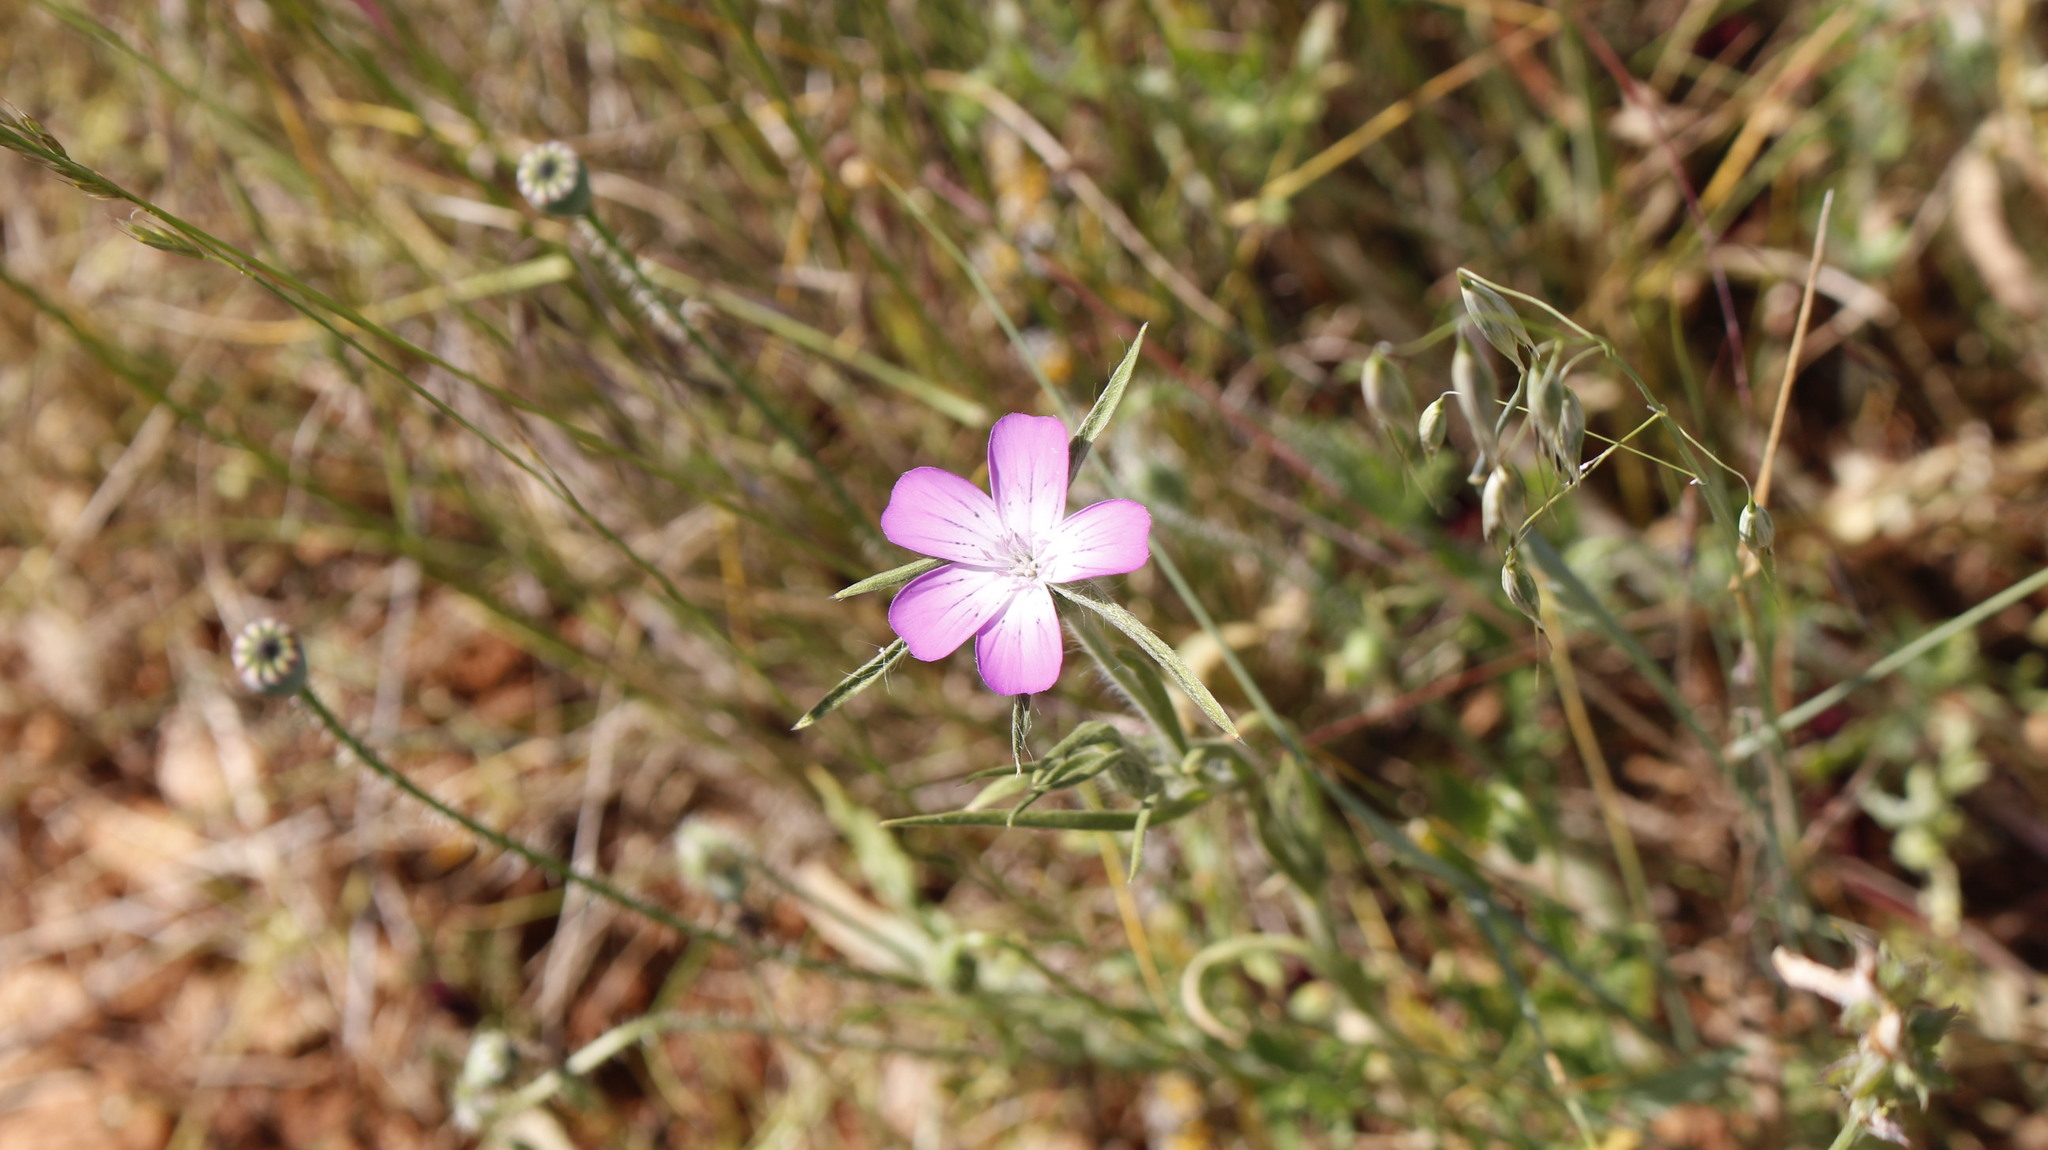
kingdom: Plantae
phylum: Tracheophyta
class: Magnoliopsida
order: Caryophyllales
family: Caryophyllaceae
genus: Agrostemma
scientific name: Agrostemma githago
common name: Common corncockle
